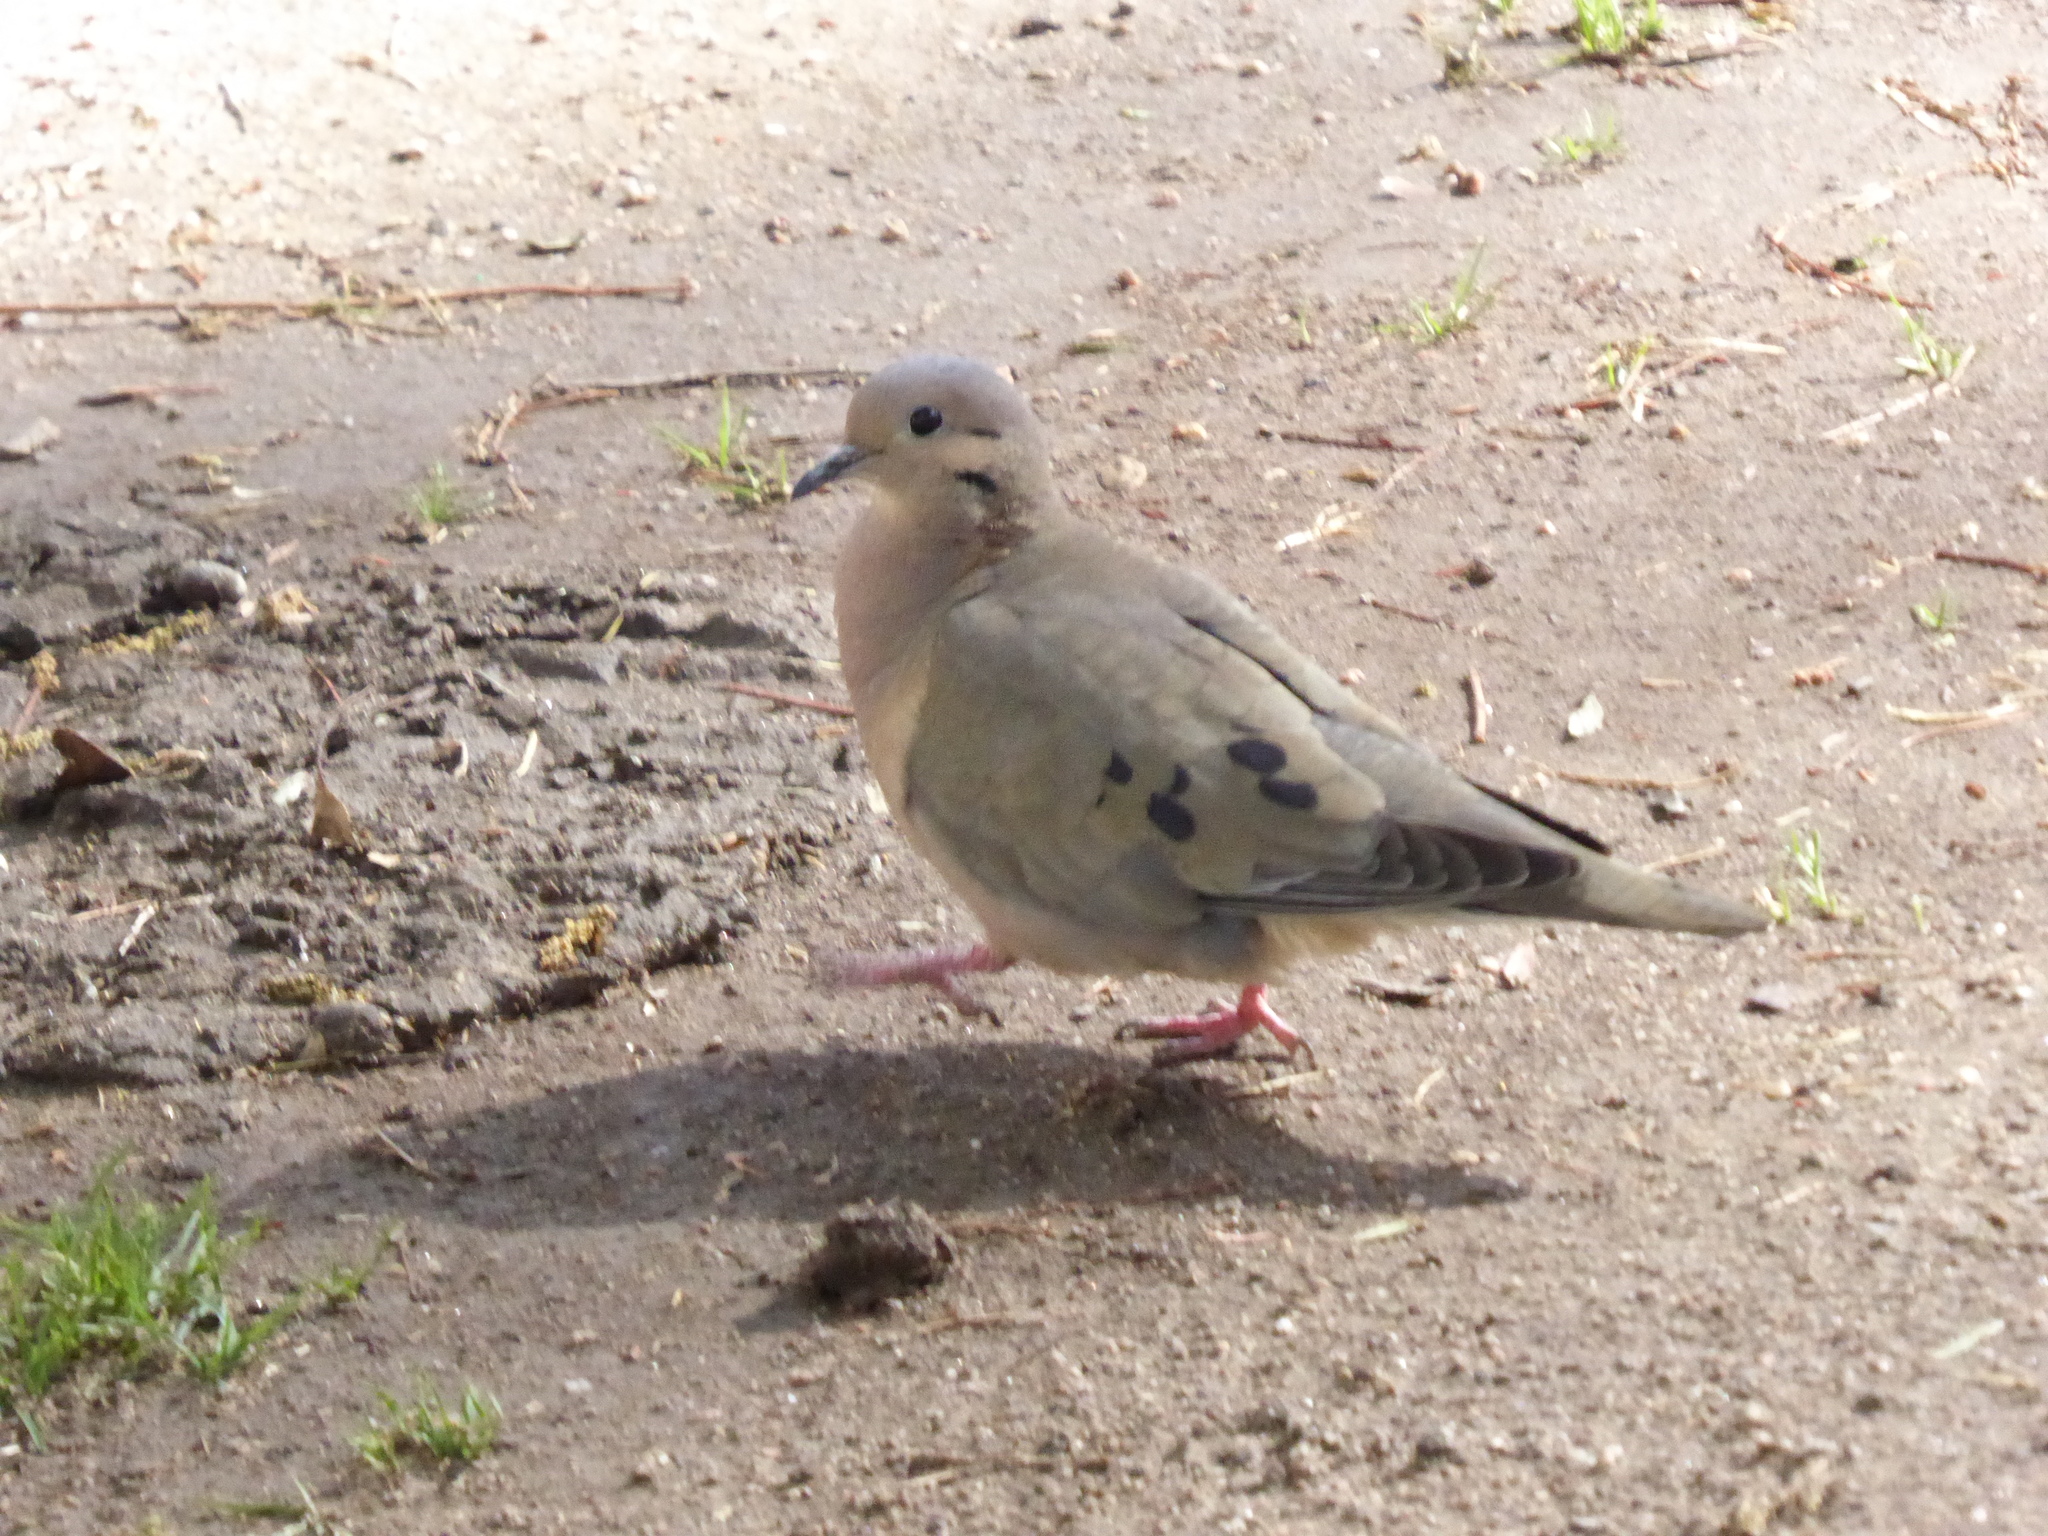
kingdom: Animalia
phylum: Chordata
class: Aves
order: Columbiformes
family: Columbidae
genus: Zenaida
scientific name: Zenaida auriculata
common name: Eared dove
